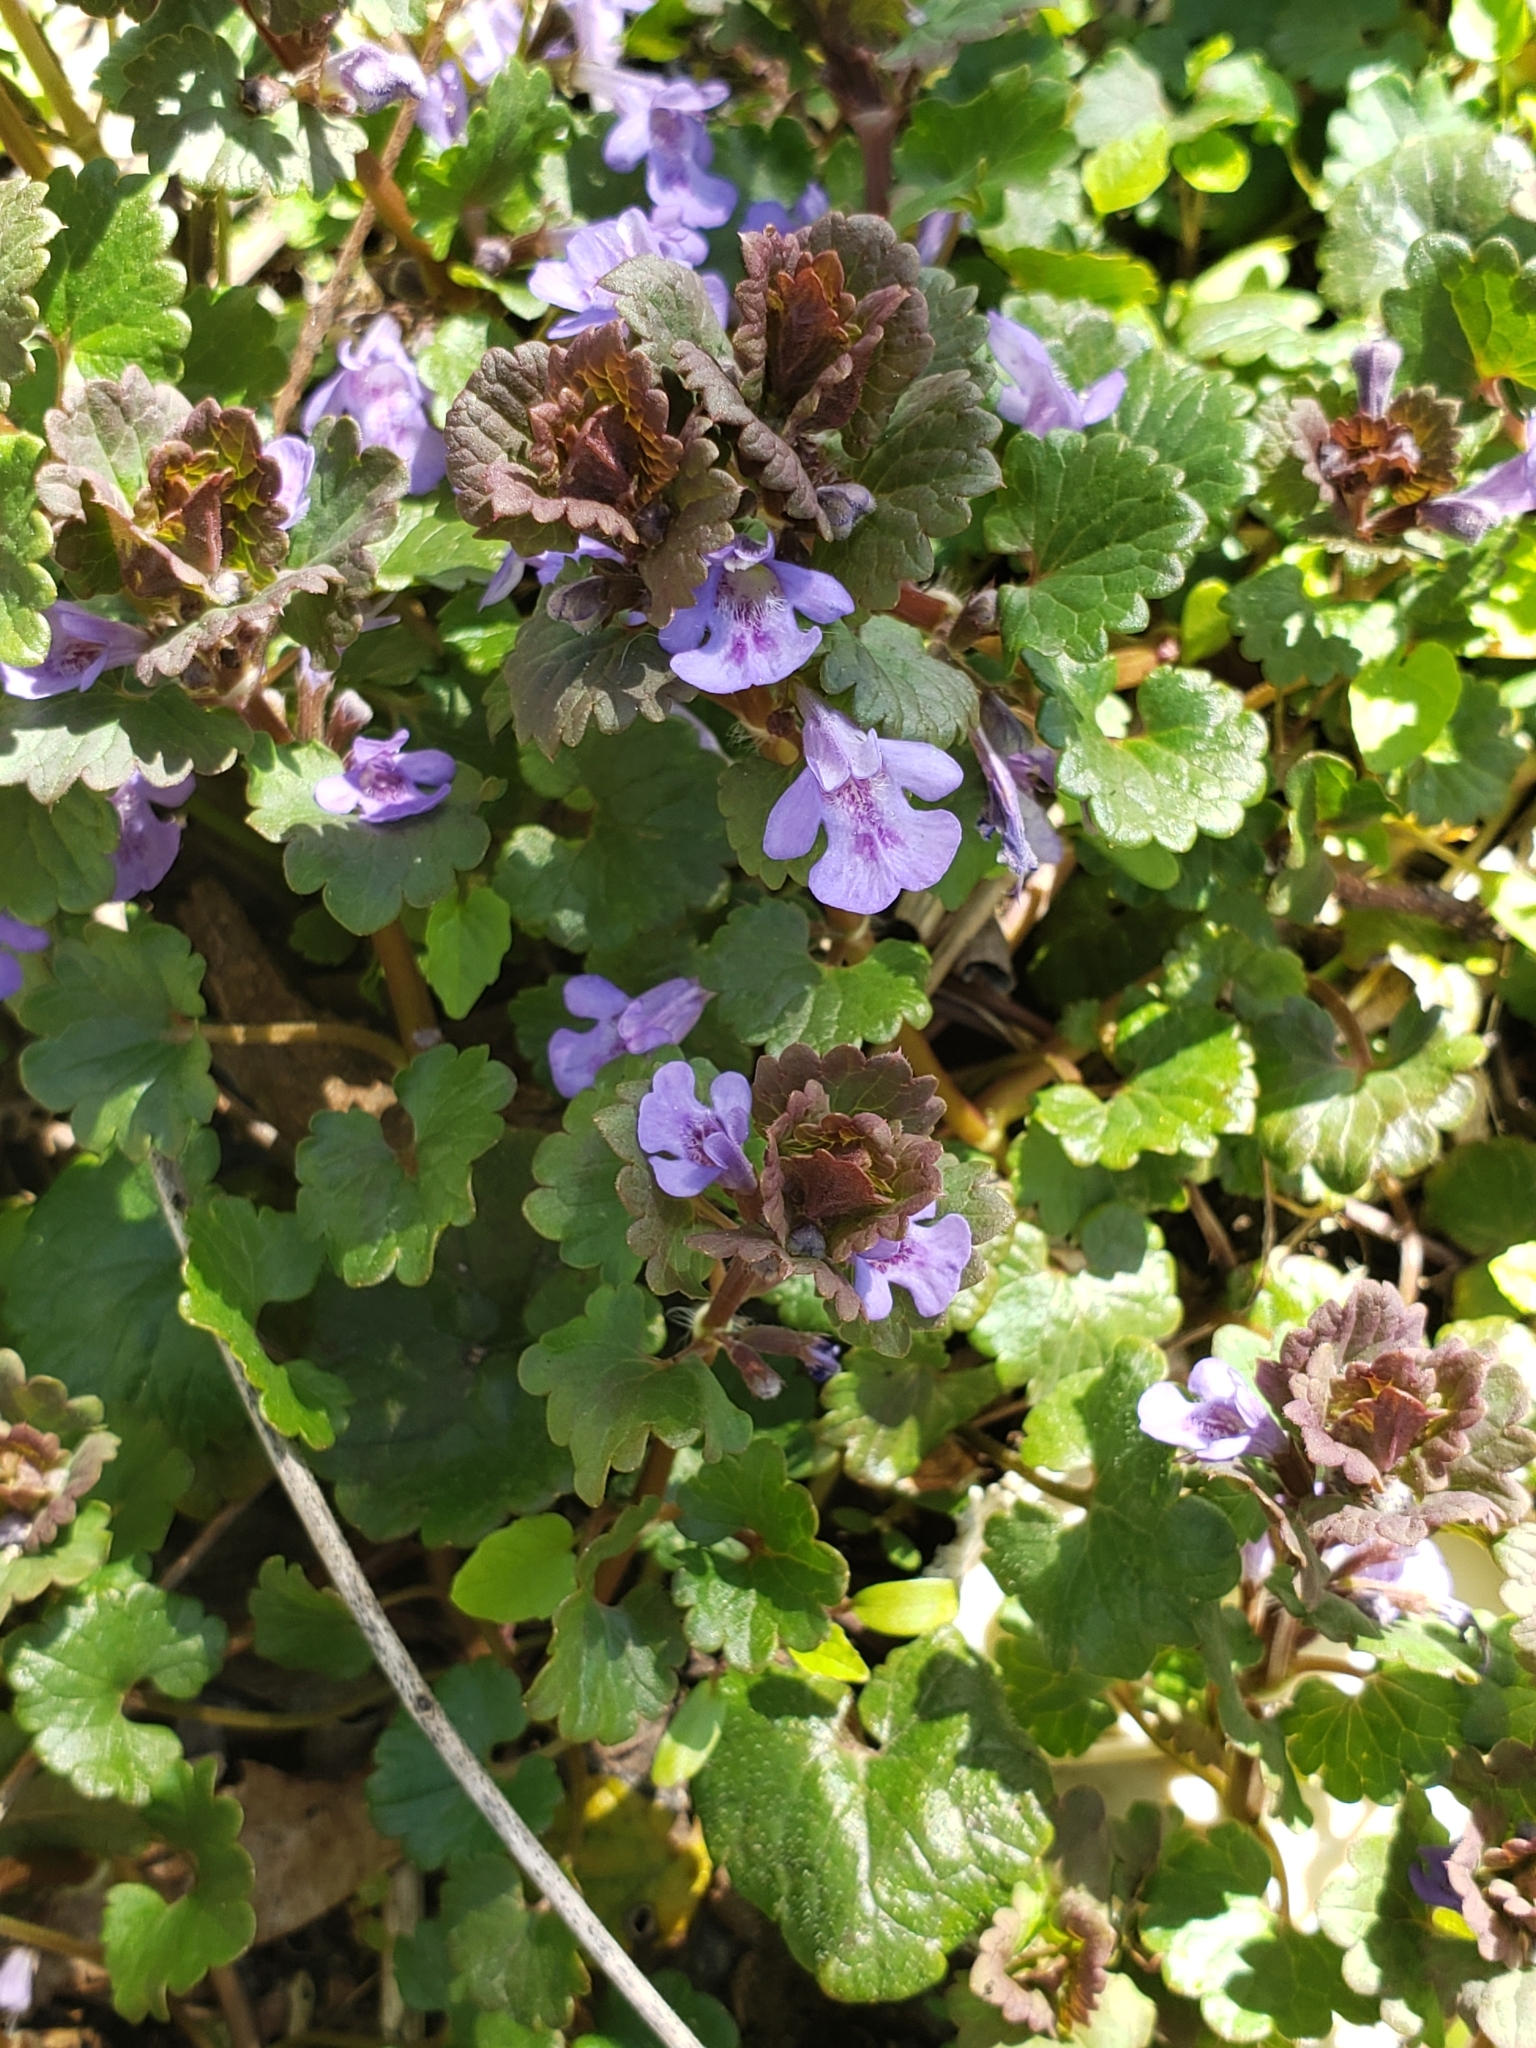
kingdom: Plantae
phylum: Tracheophyta
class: Magnoliopsida
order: Lamiales
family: Lamiaceae
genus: Glechoma
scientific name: Glechoma hederacea
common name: Ground ivy
